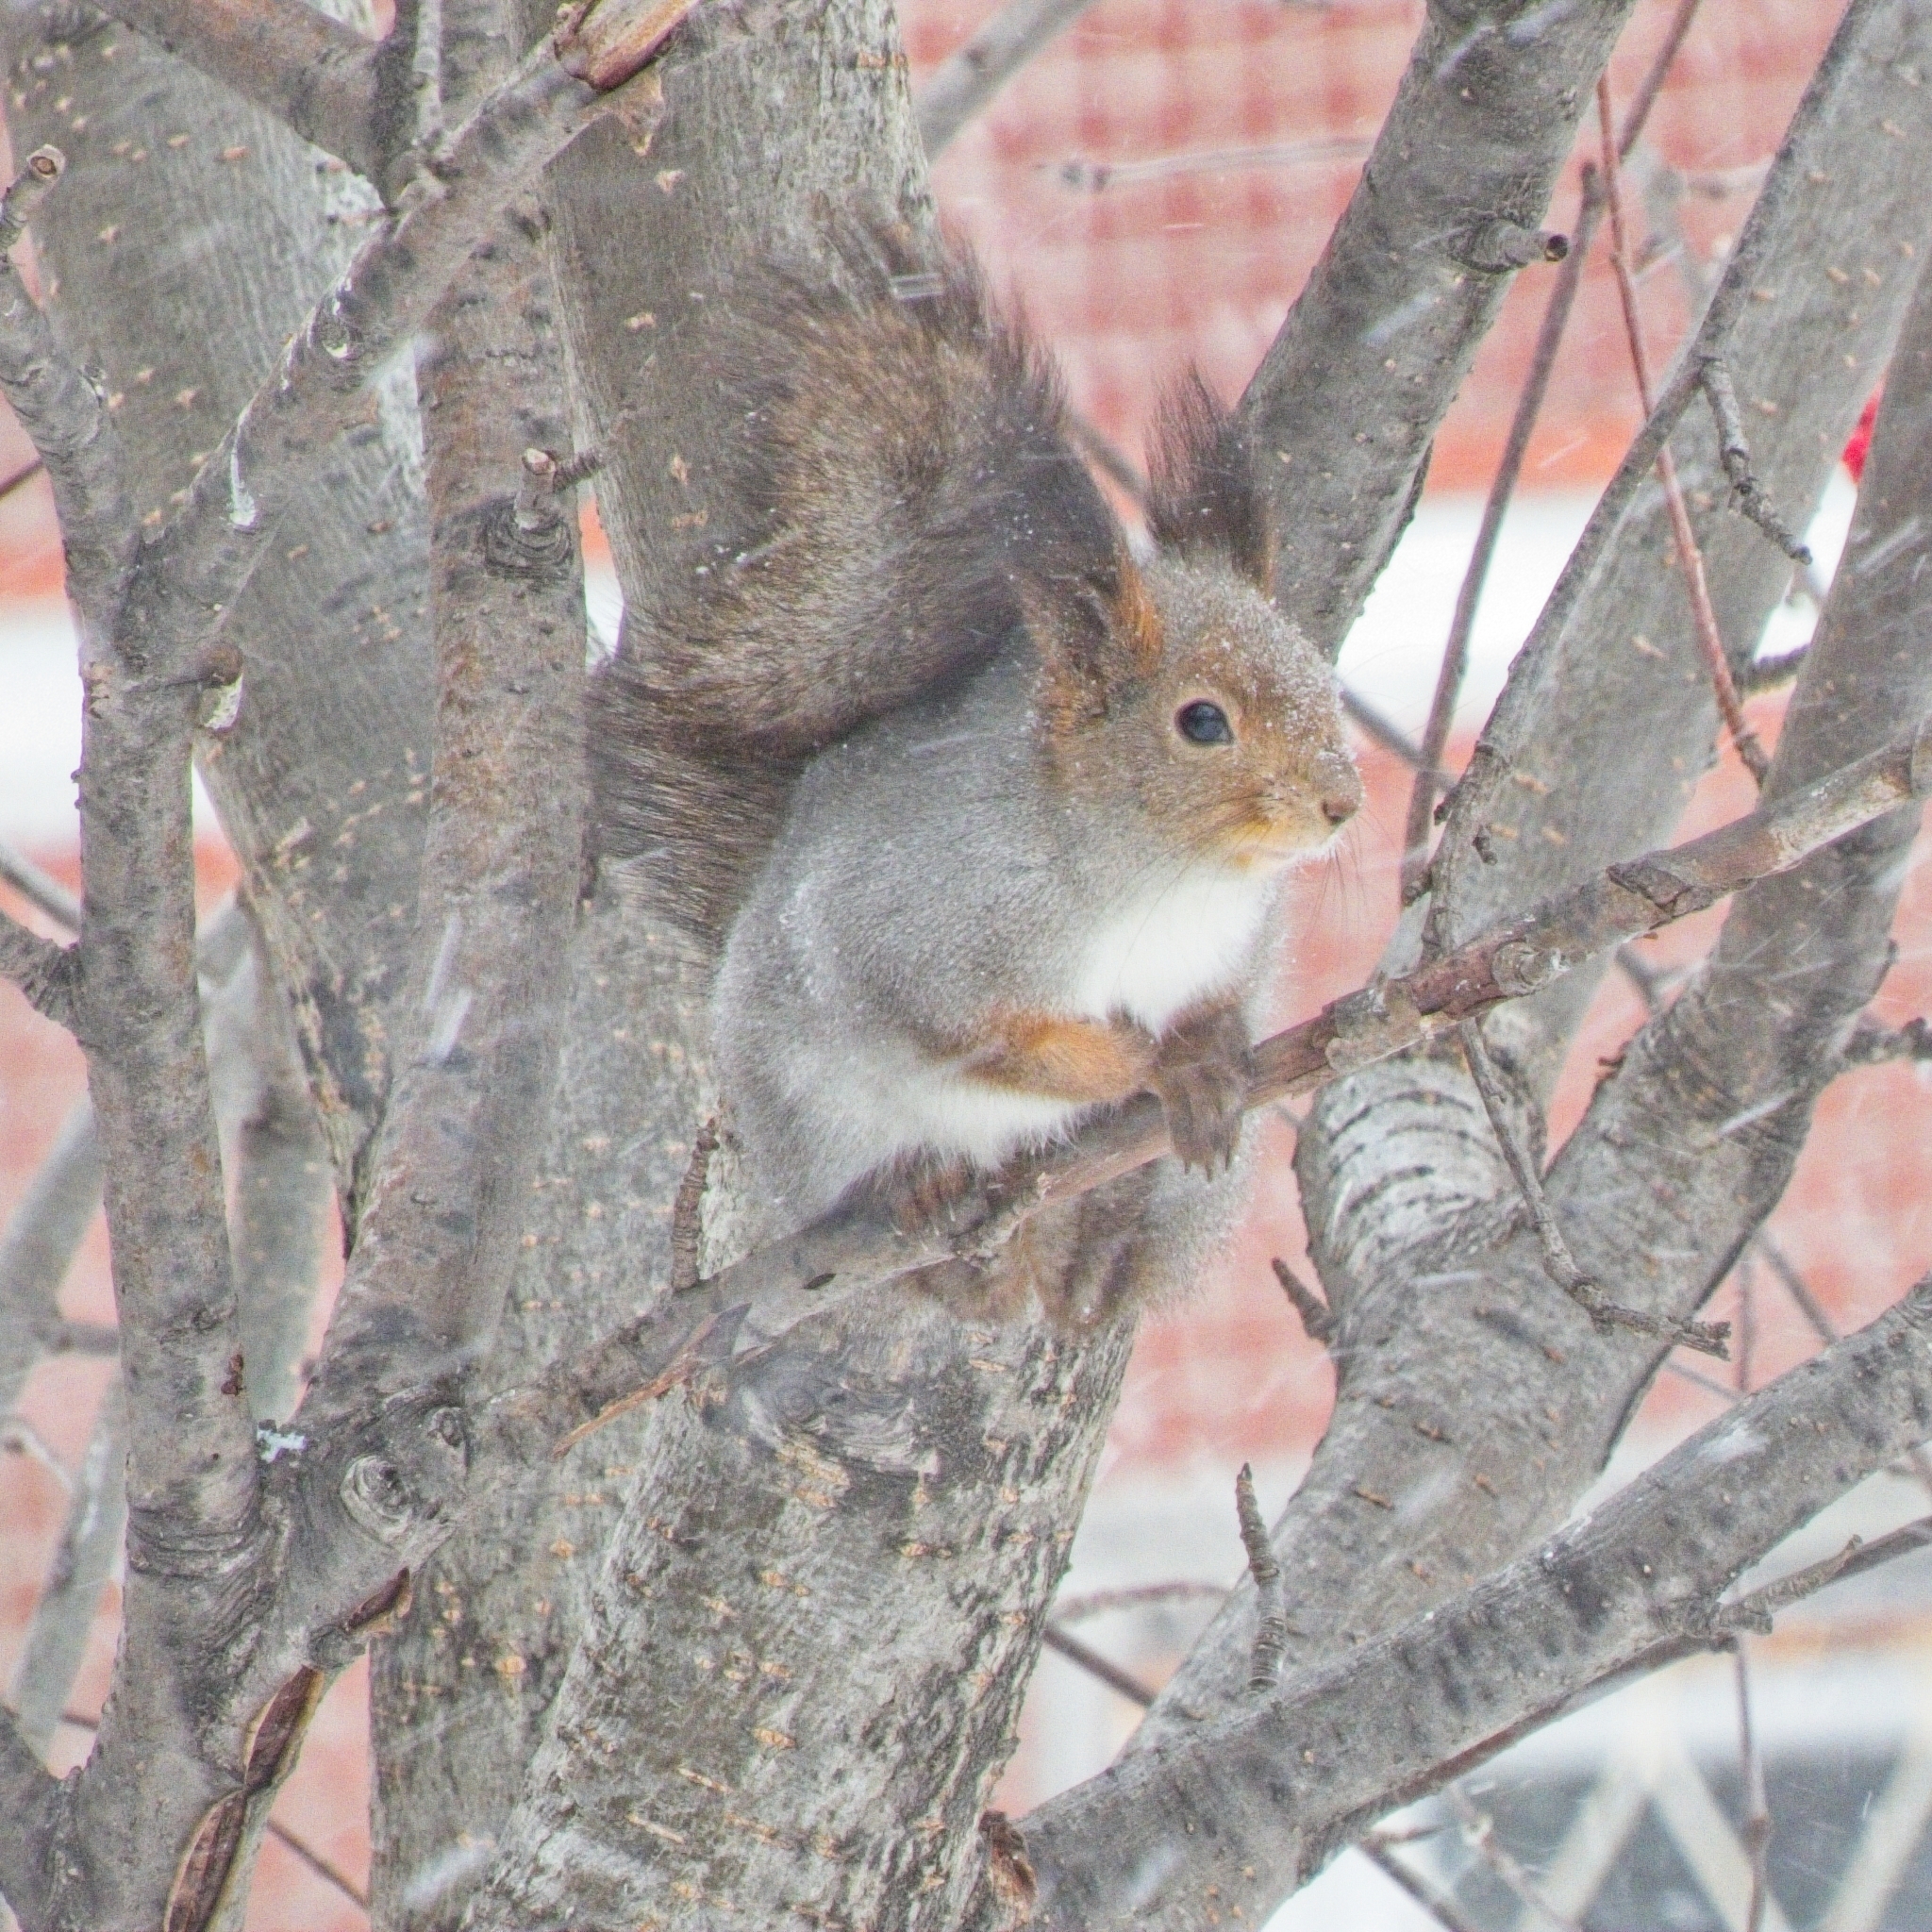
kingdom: Animalia
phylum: Chordata
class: Mammalia
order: Rodentia
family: Sciuridae
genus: Sciurus
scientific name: Sciurus vulgaris
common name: Eurasian red squirrel
